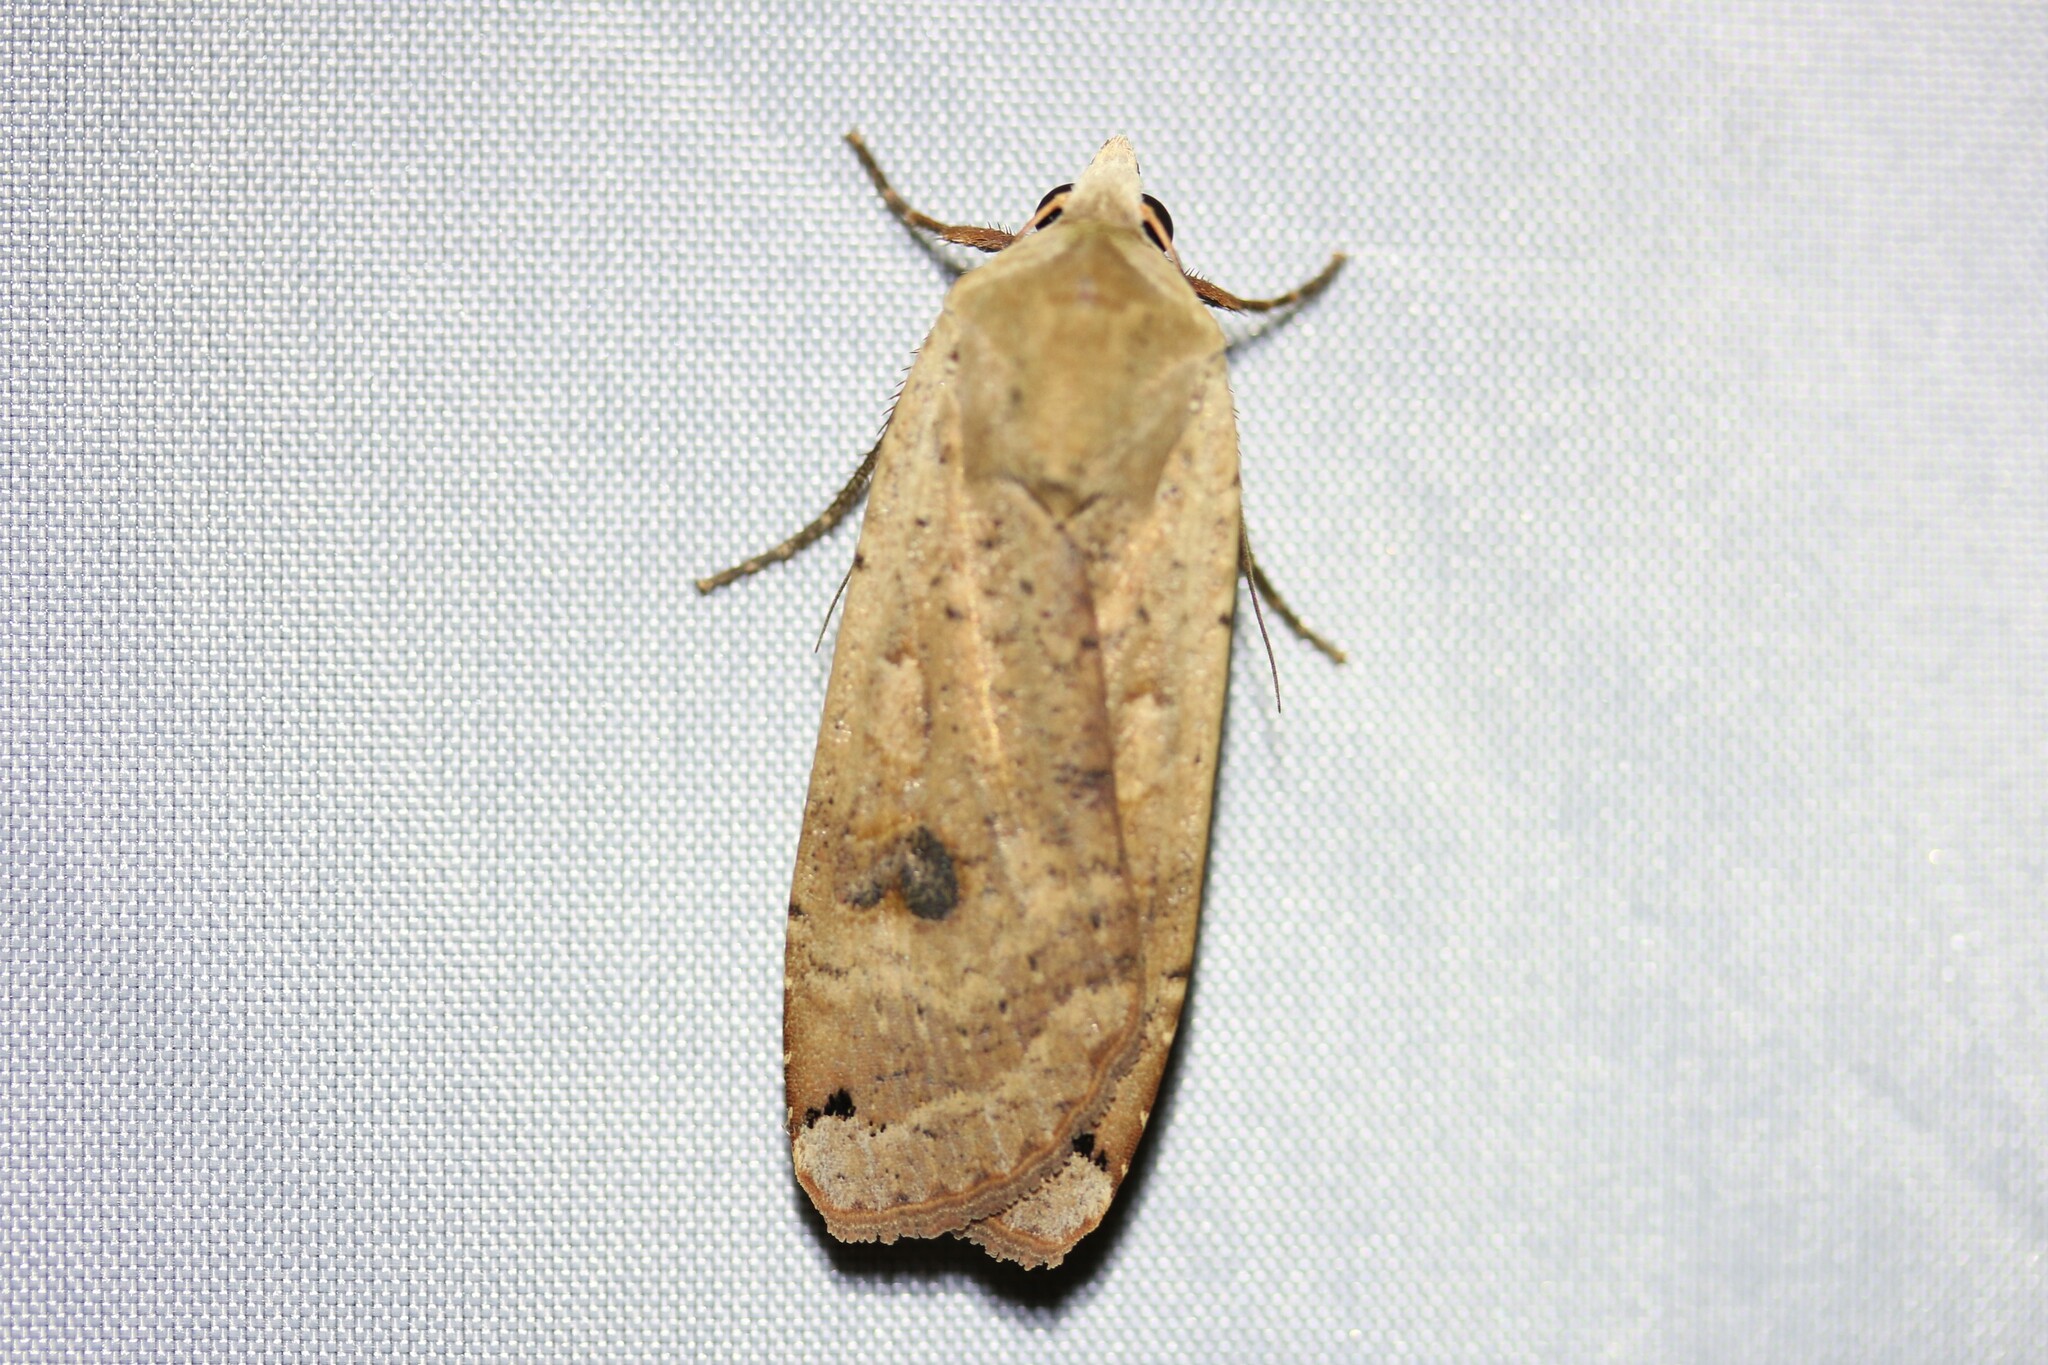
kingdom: Animalia
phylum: Arthropoda
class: Insecta
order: Lepidoptera
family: Noctuidae
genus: Noctua
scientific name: Noctua pronuba
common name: Large yellow underwing
